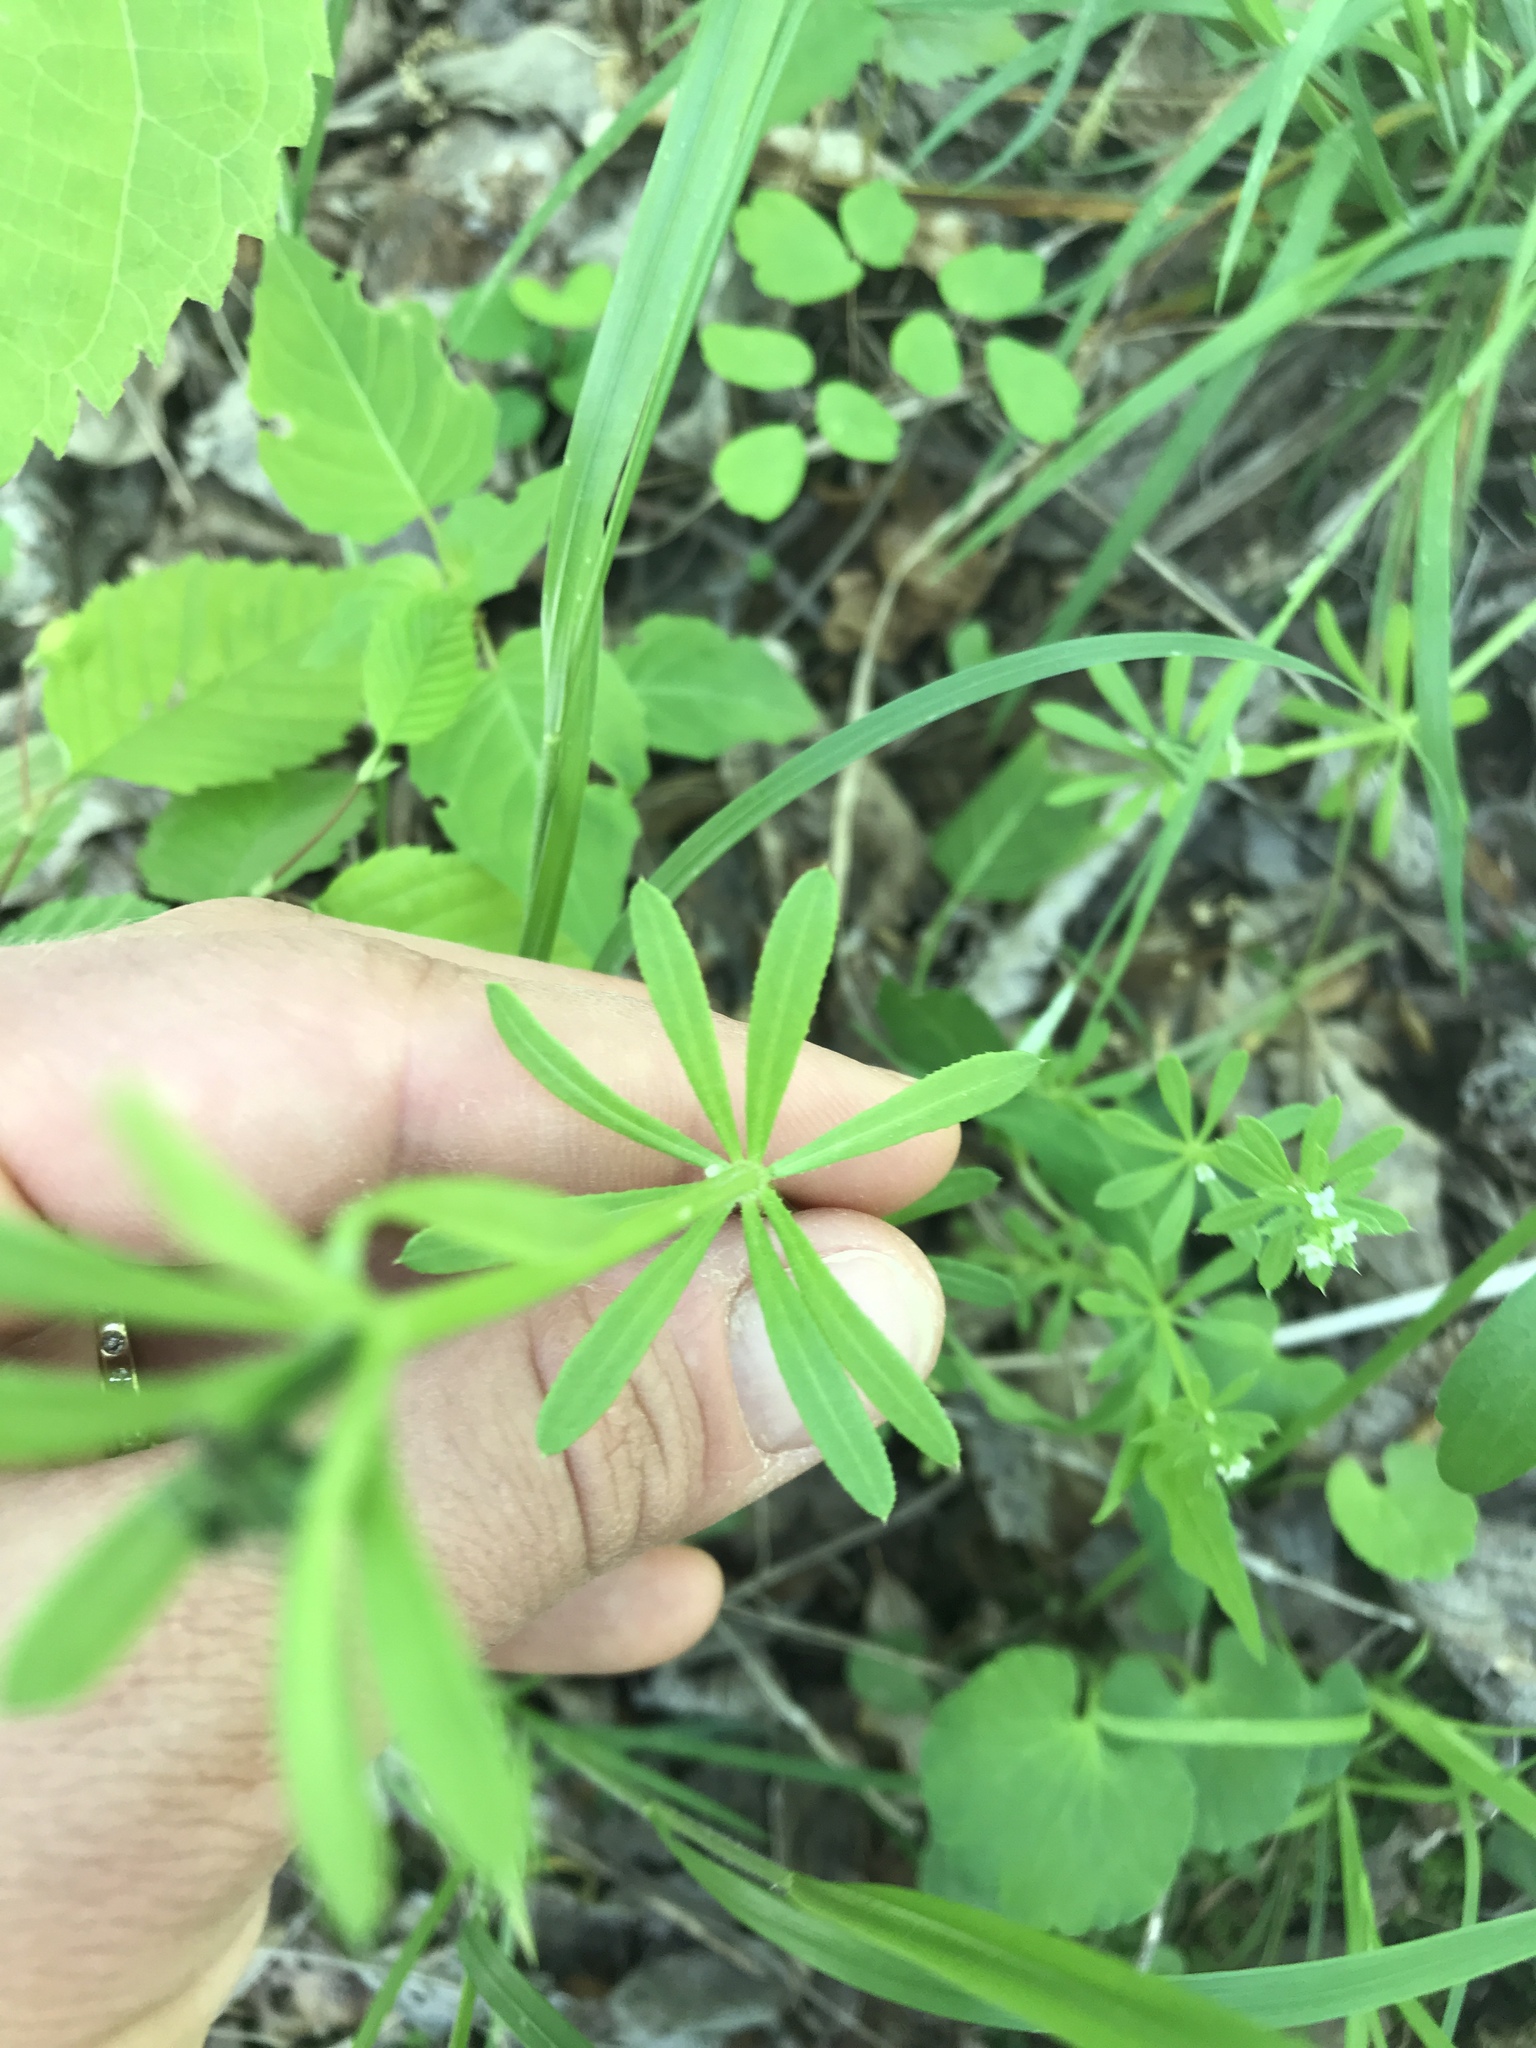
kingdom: Plantae
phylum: Tracheophyta
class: Magnoliopsida
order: Gentianales
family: Rubiaceae
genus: Galium
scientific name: Galium aparine
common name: Cleavers
